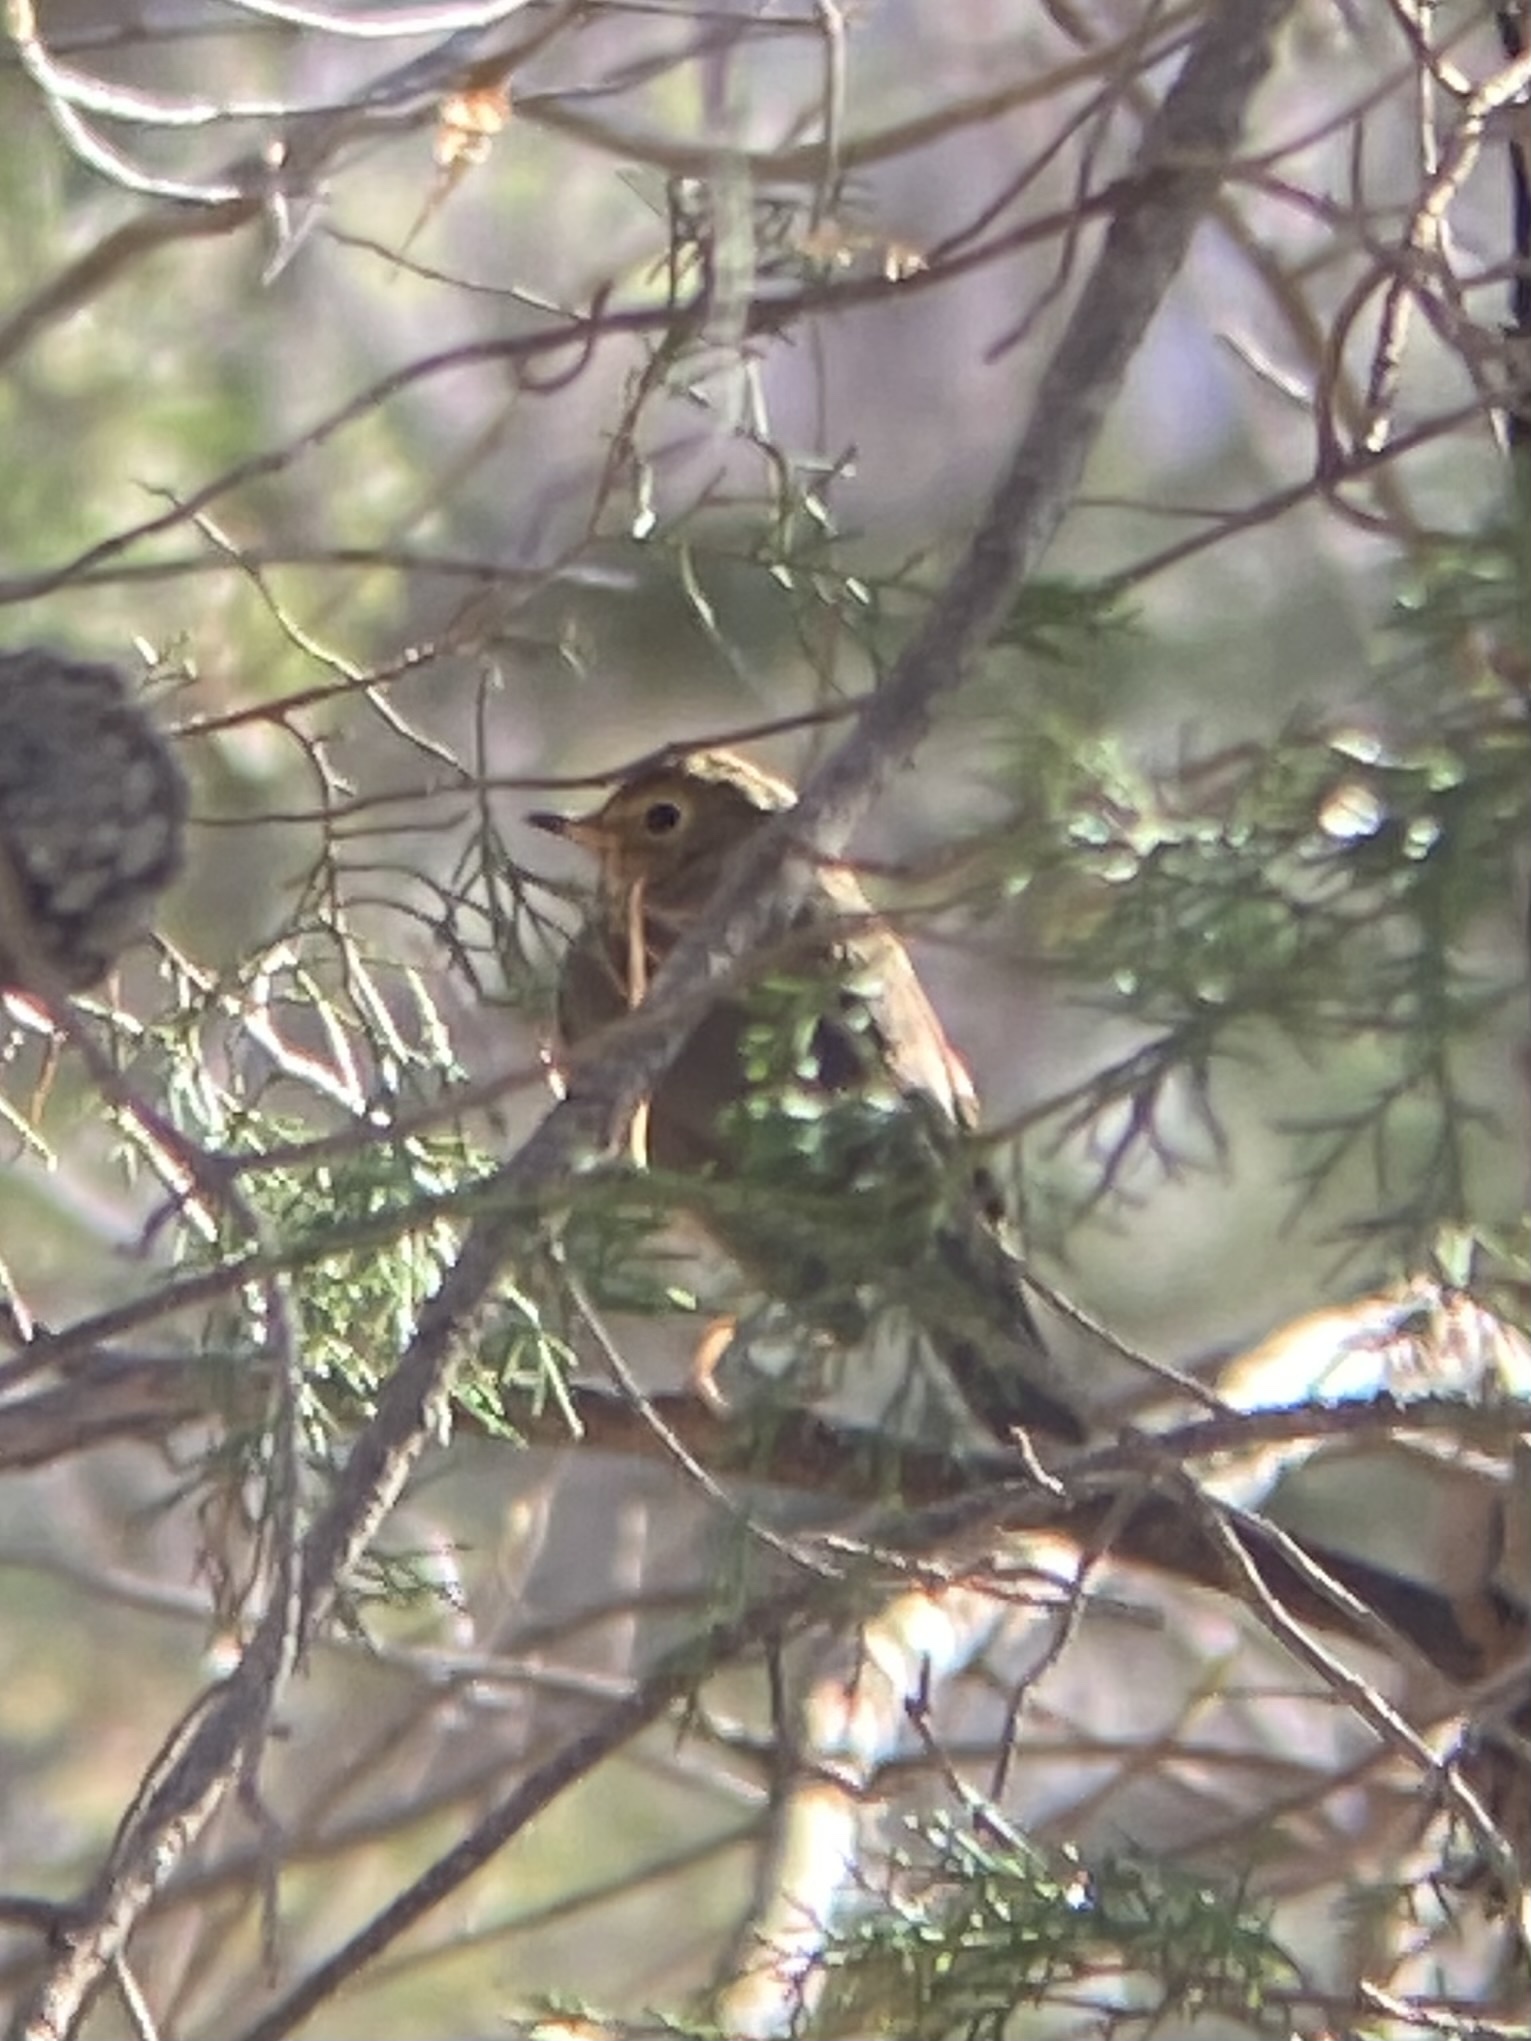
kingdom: Animalia
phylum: Chordata
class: Aves
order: Passeriformes
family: Turdidae
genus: Catharus
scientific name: Catharus ustulatus
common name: Swainson's thrush
